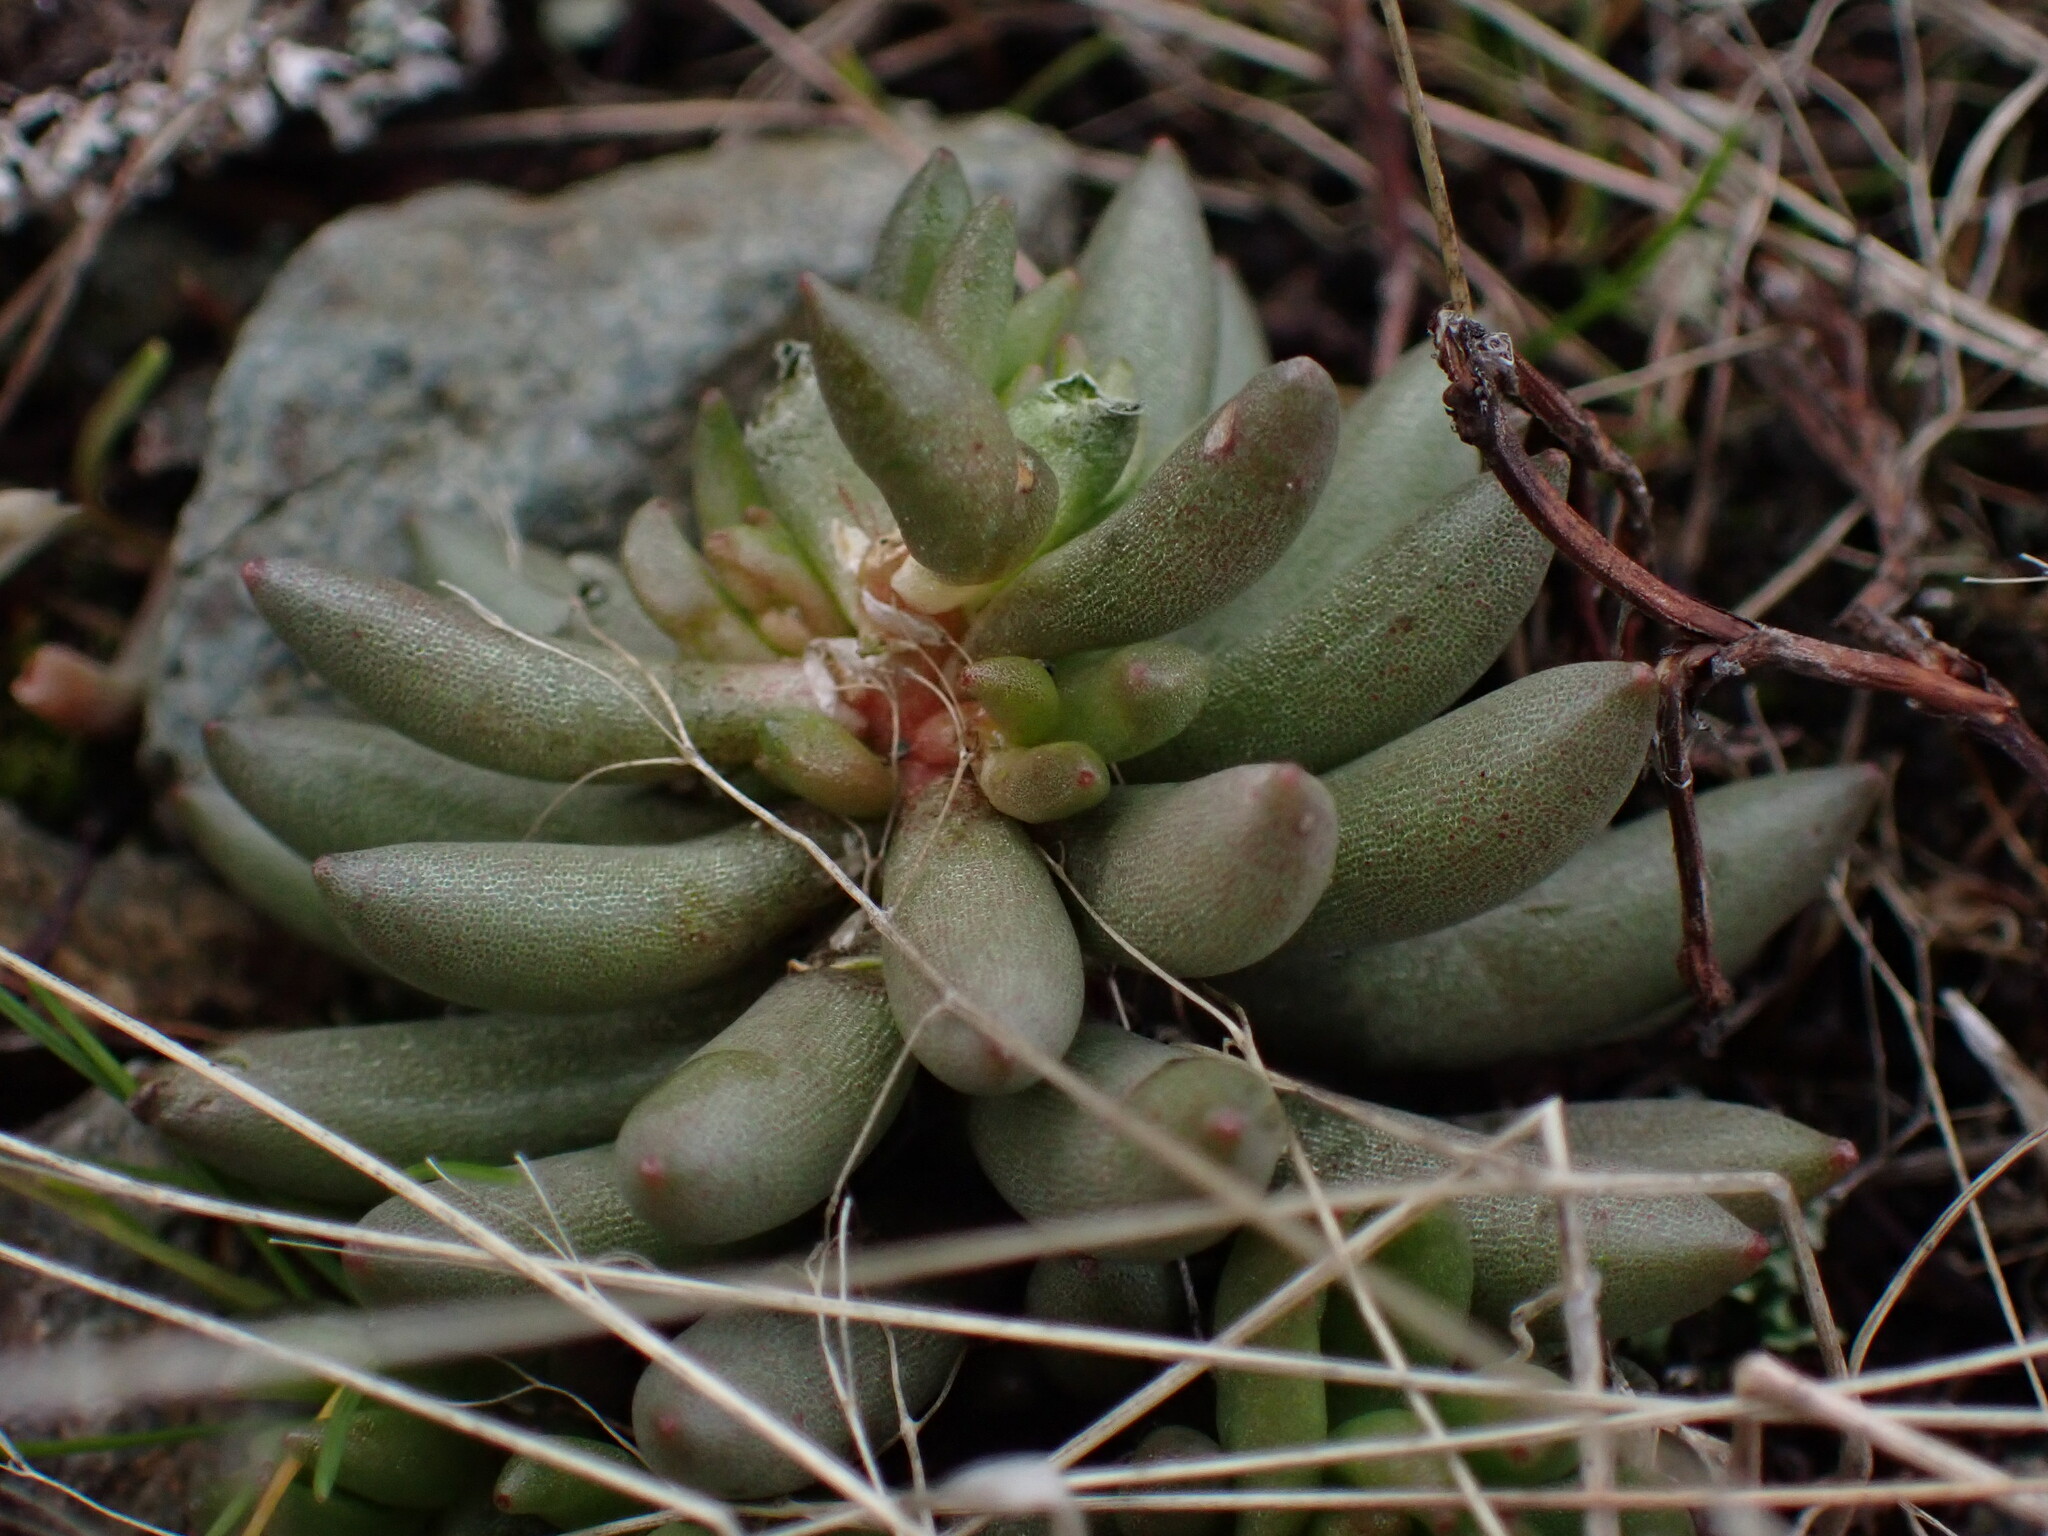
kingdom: Plantae
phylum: Tracheophyta
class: Magnoliopsida
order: Saxifragales
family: Crassulaceae
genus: Sedum
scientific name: Sedum lanceolatum
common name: Common stonecrop
